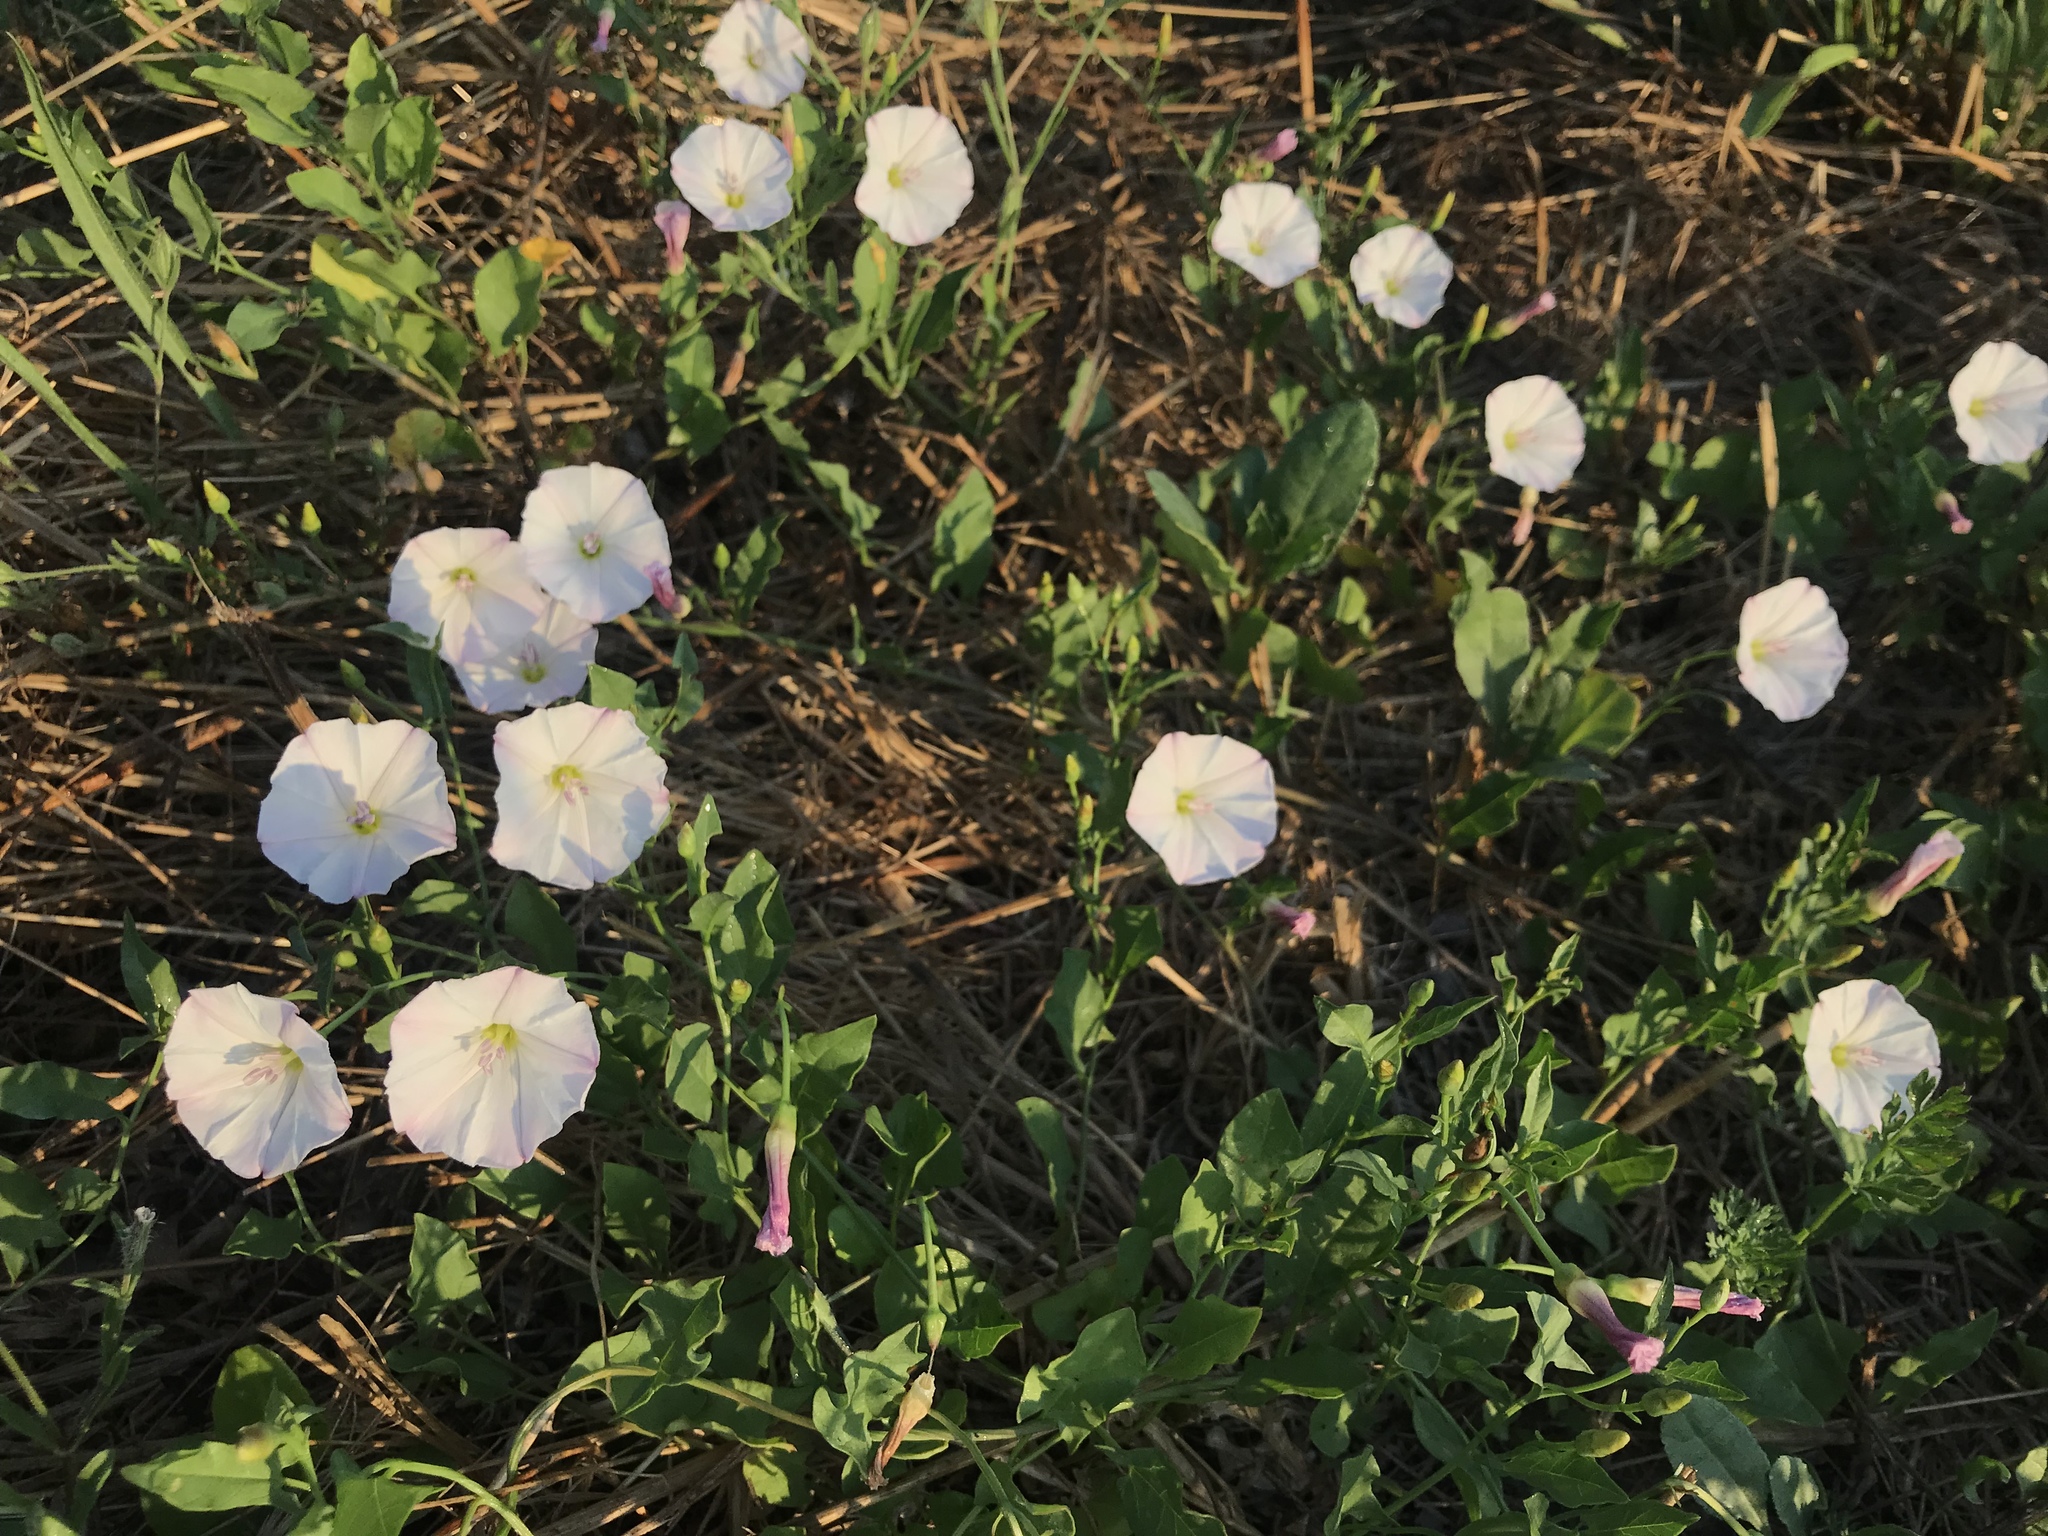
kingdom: Plantae
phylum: Tracheophyta
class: Magnoliopsida
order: Solanales
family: Convolvulaceae
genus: Convolvulus
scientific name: Convolvulus arvensis
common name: Field bindweed
